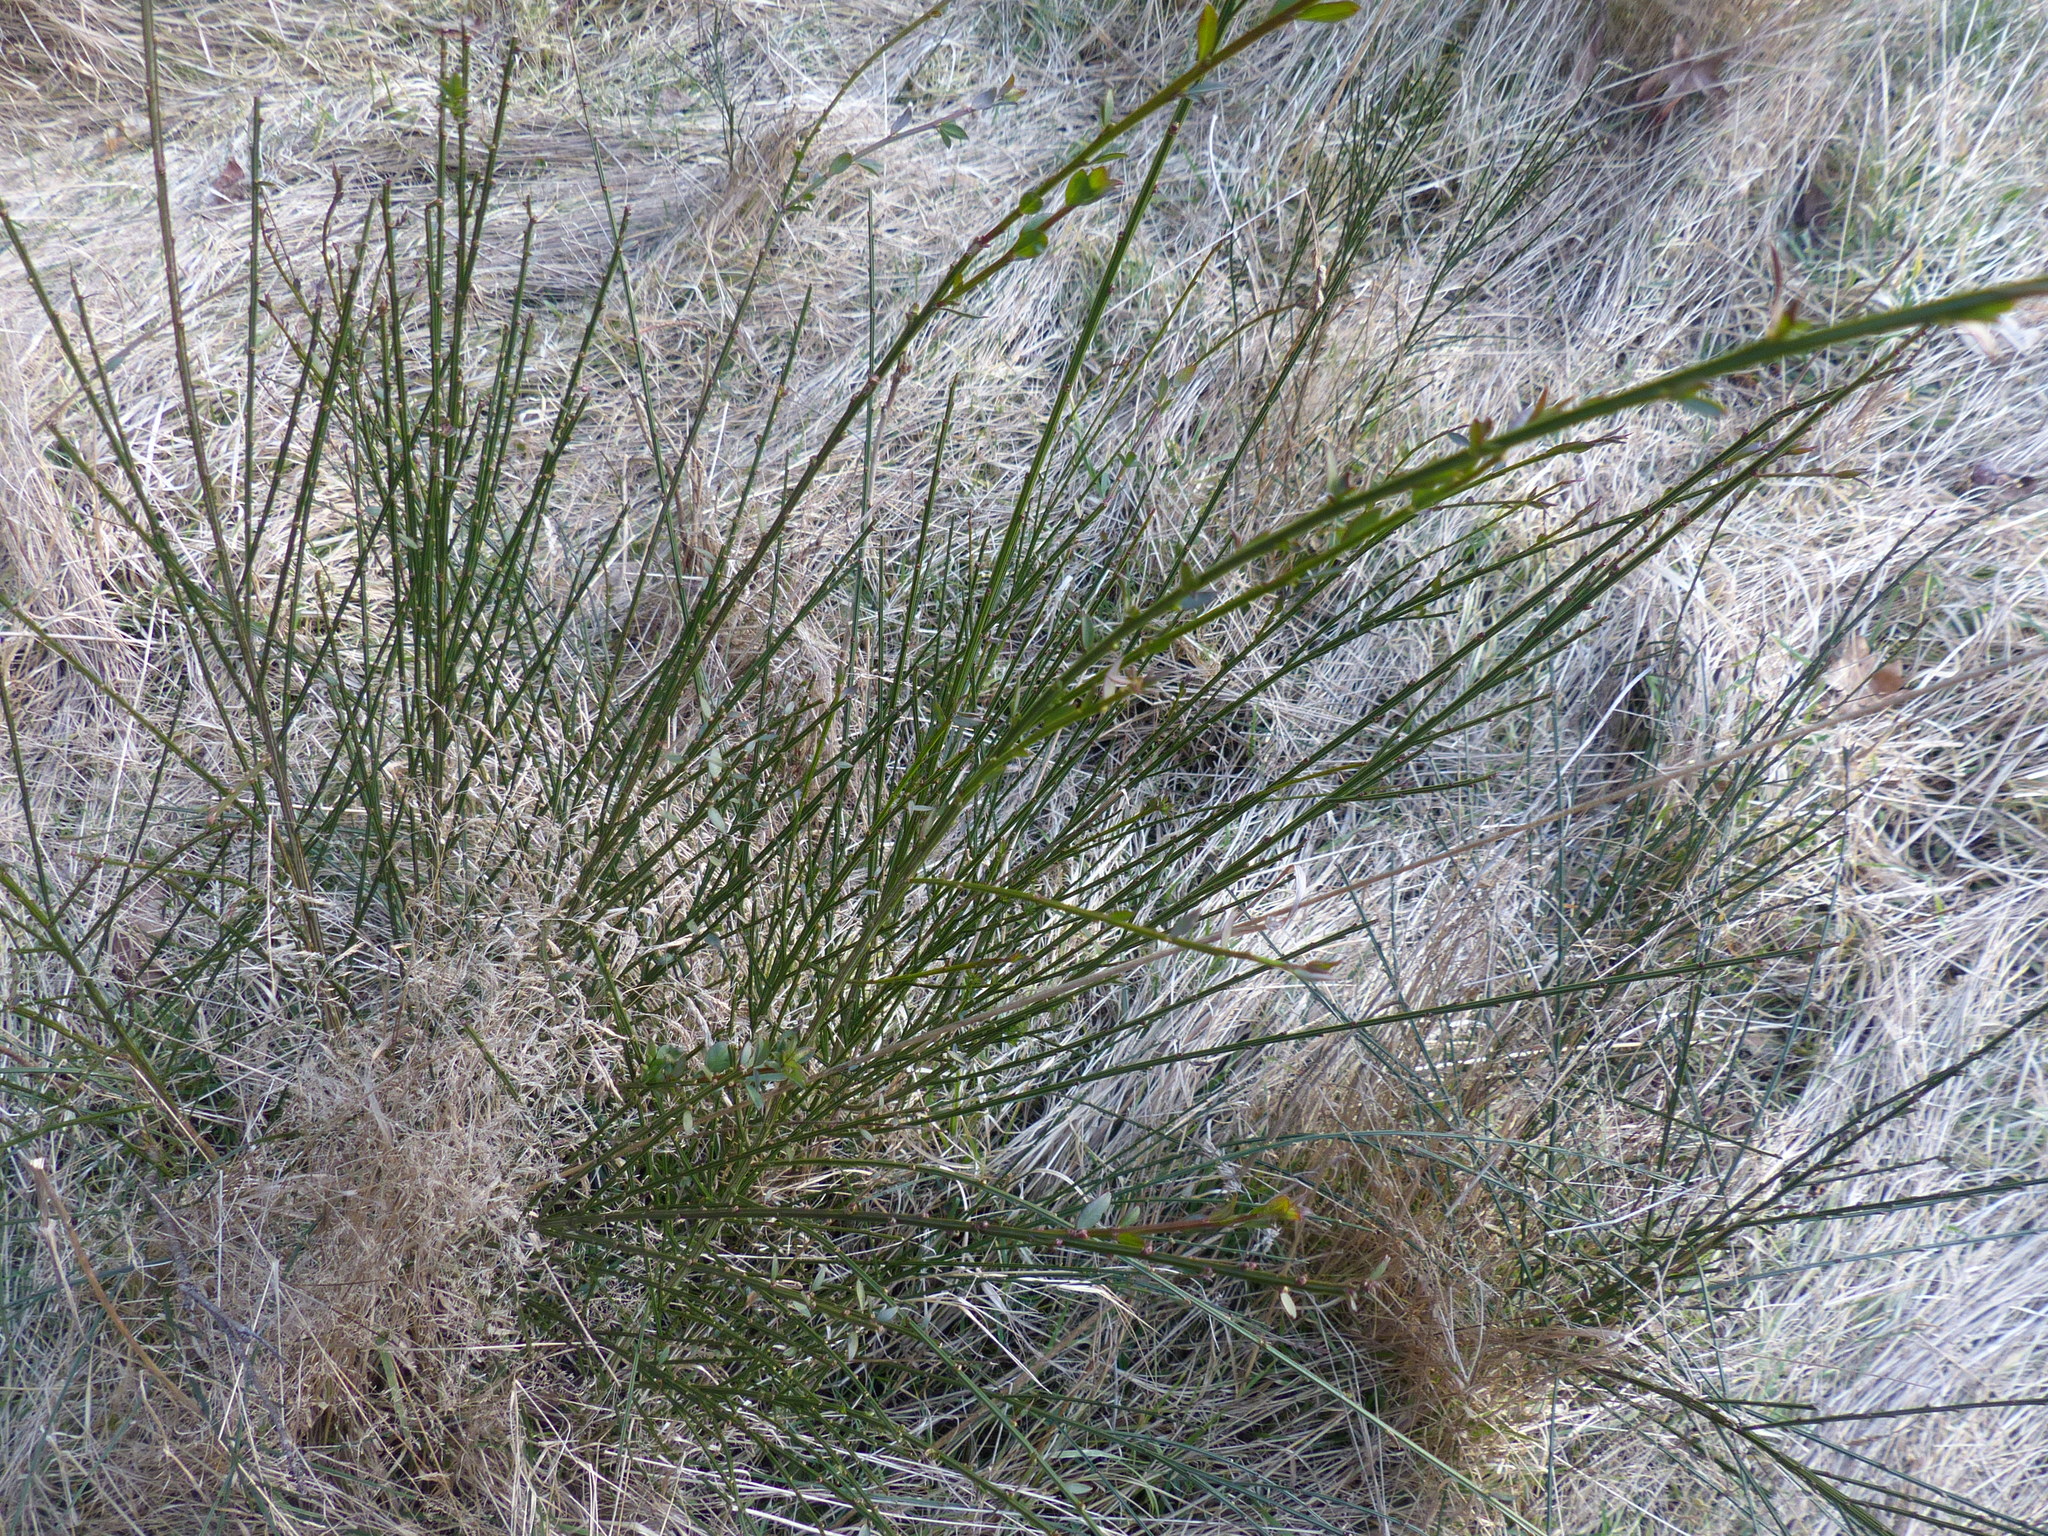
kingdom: Plantae
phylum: Tracheophyta
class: Magnoliopsida
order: Fabales
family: Fabaceae
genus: Cytisus
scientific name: Cytisus scoparius
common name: Scotch broom
